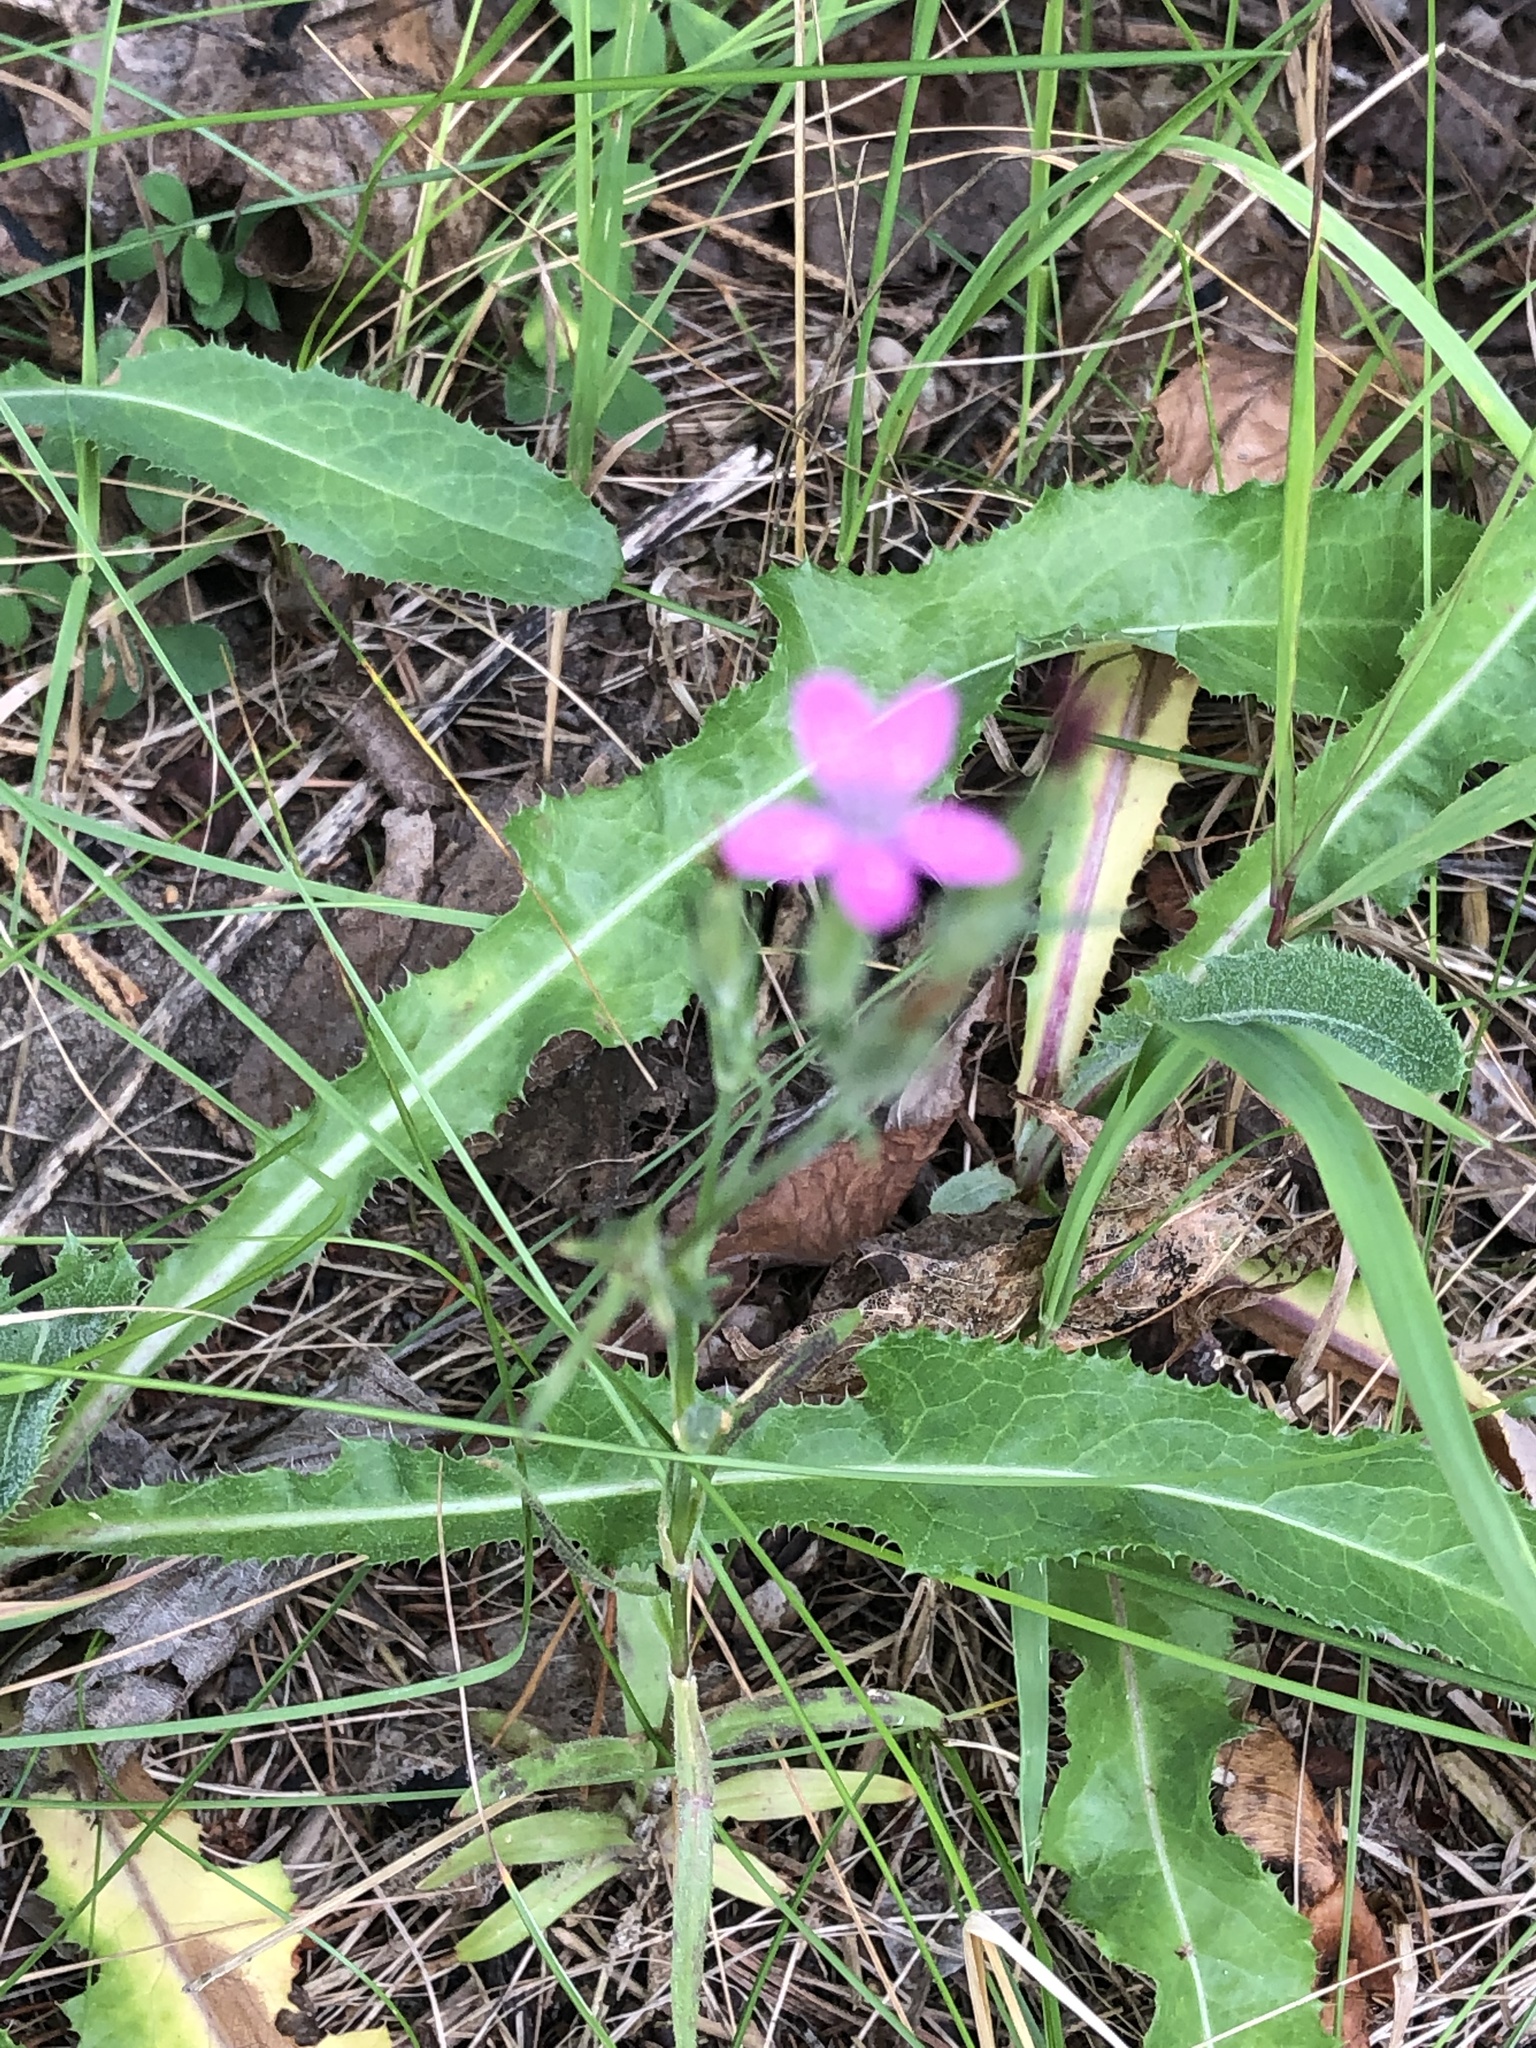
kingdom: Plantae
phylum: Tracheophyta
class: Magnoliopsida
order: Caryophyllales
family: Caryophyllaceae
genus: Dianthus
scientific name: Dianthus armeria
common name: Deptford pink
